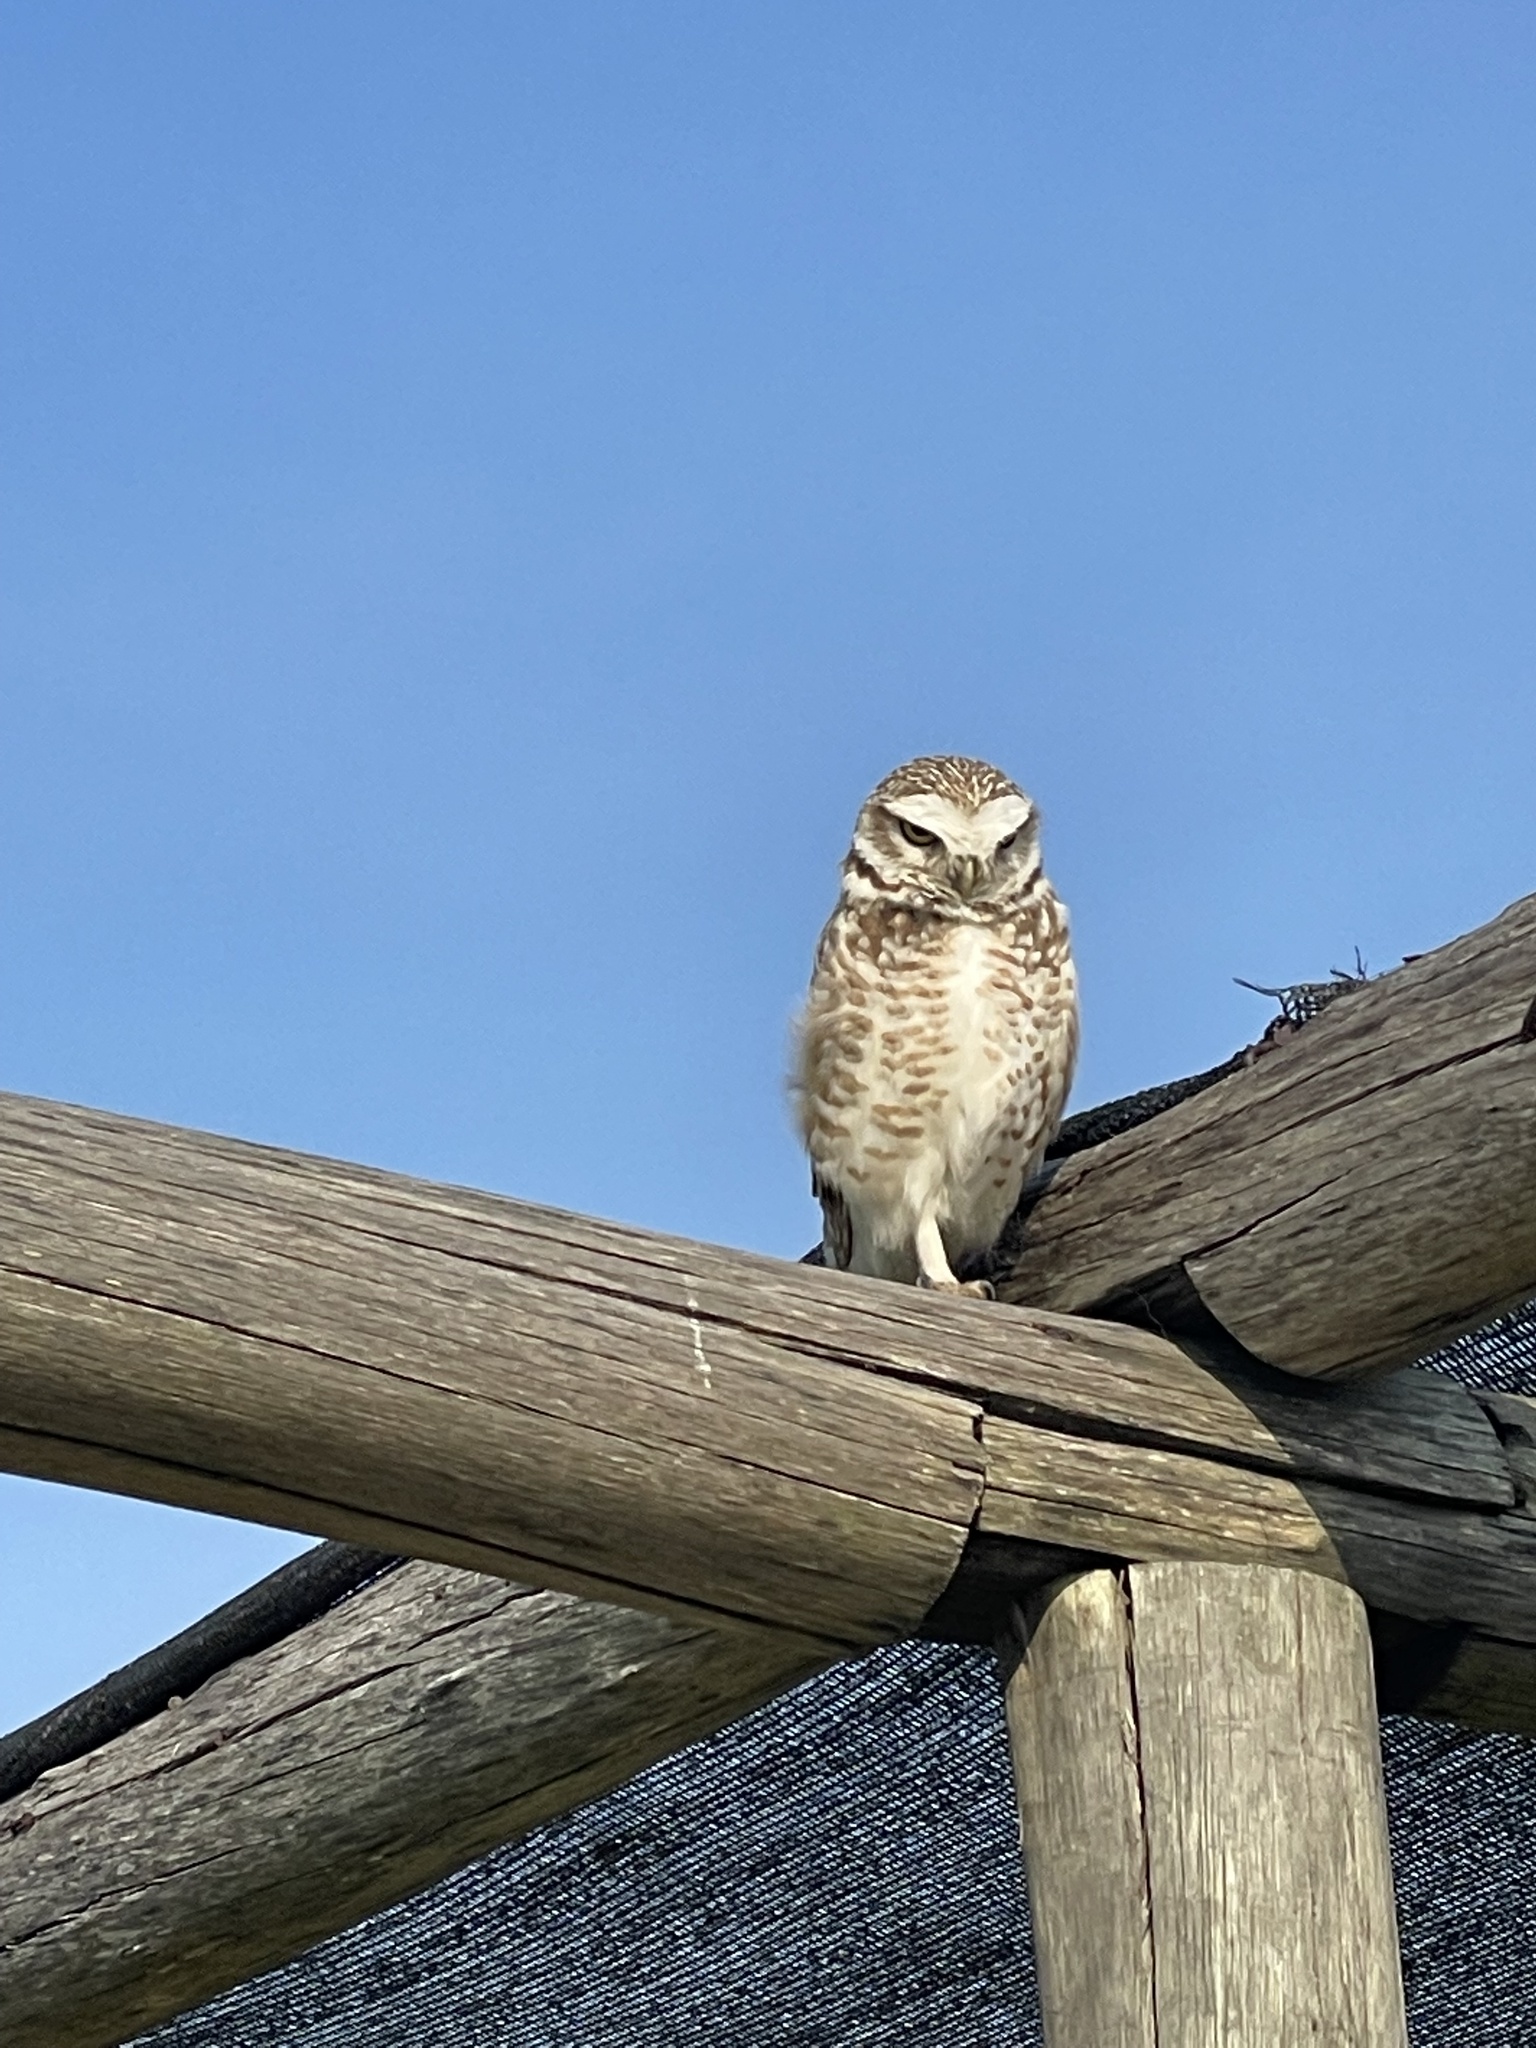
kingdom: Animalia
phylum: Chordata
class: Aves
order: Strigiformes
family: Strigidae
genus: Athene
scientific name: Athene cunicularia
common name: Burrowing owl
